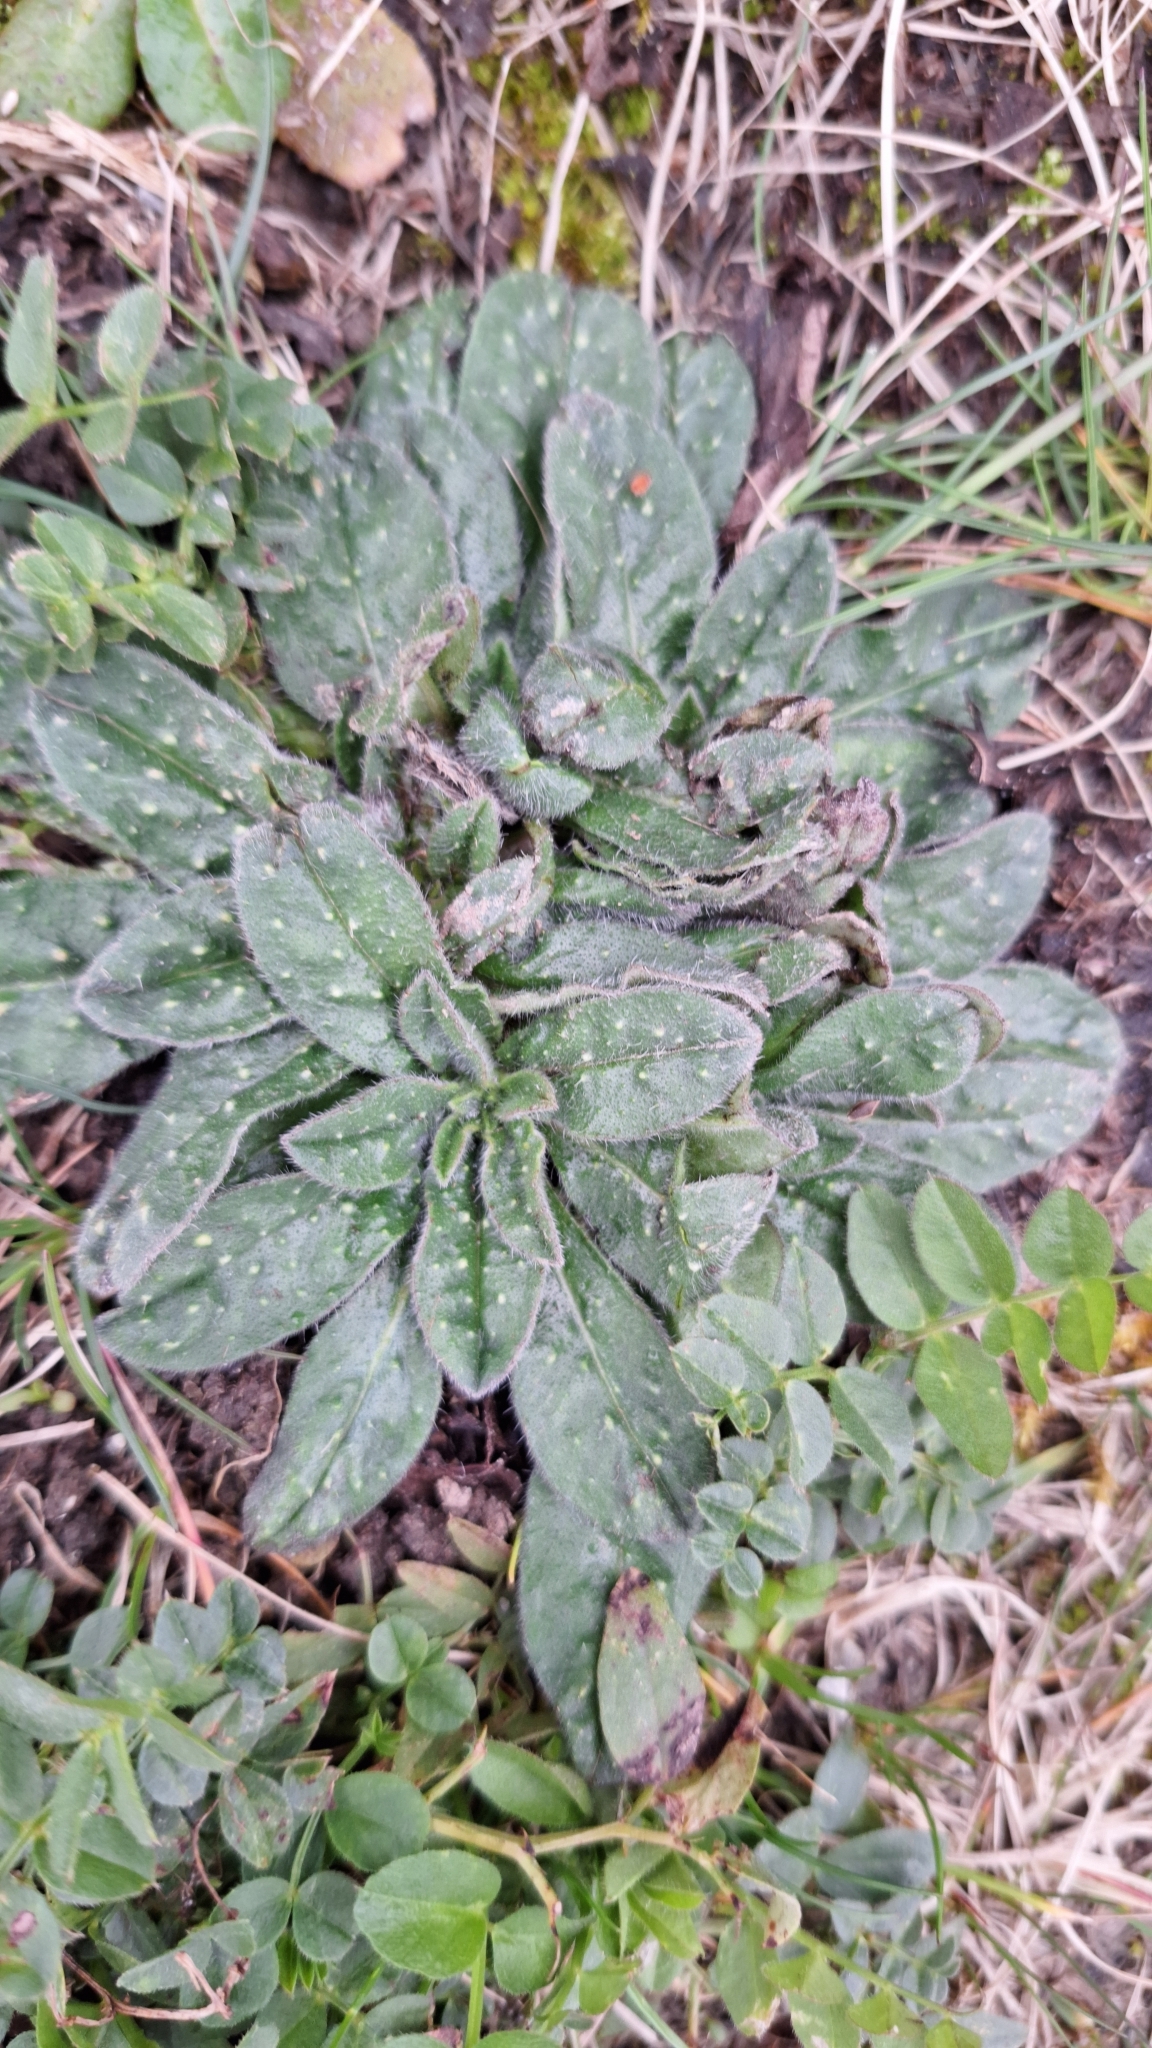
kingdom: Plantae
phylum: Tracheophyta
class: Magnoliopsida
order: Boraginales
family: Boraginaceae
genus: Echium
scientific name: Echium vulgare
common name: Common viper's bugloss
